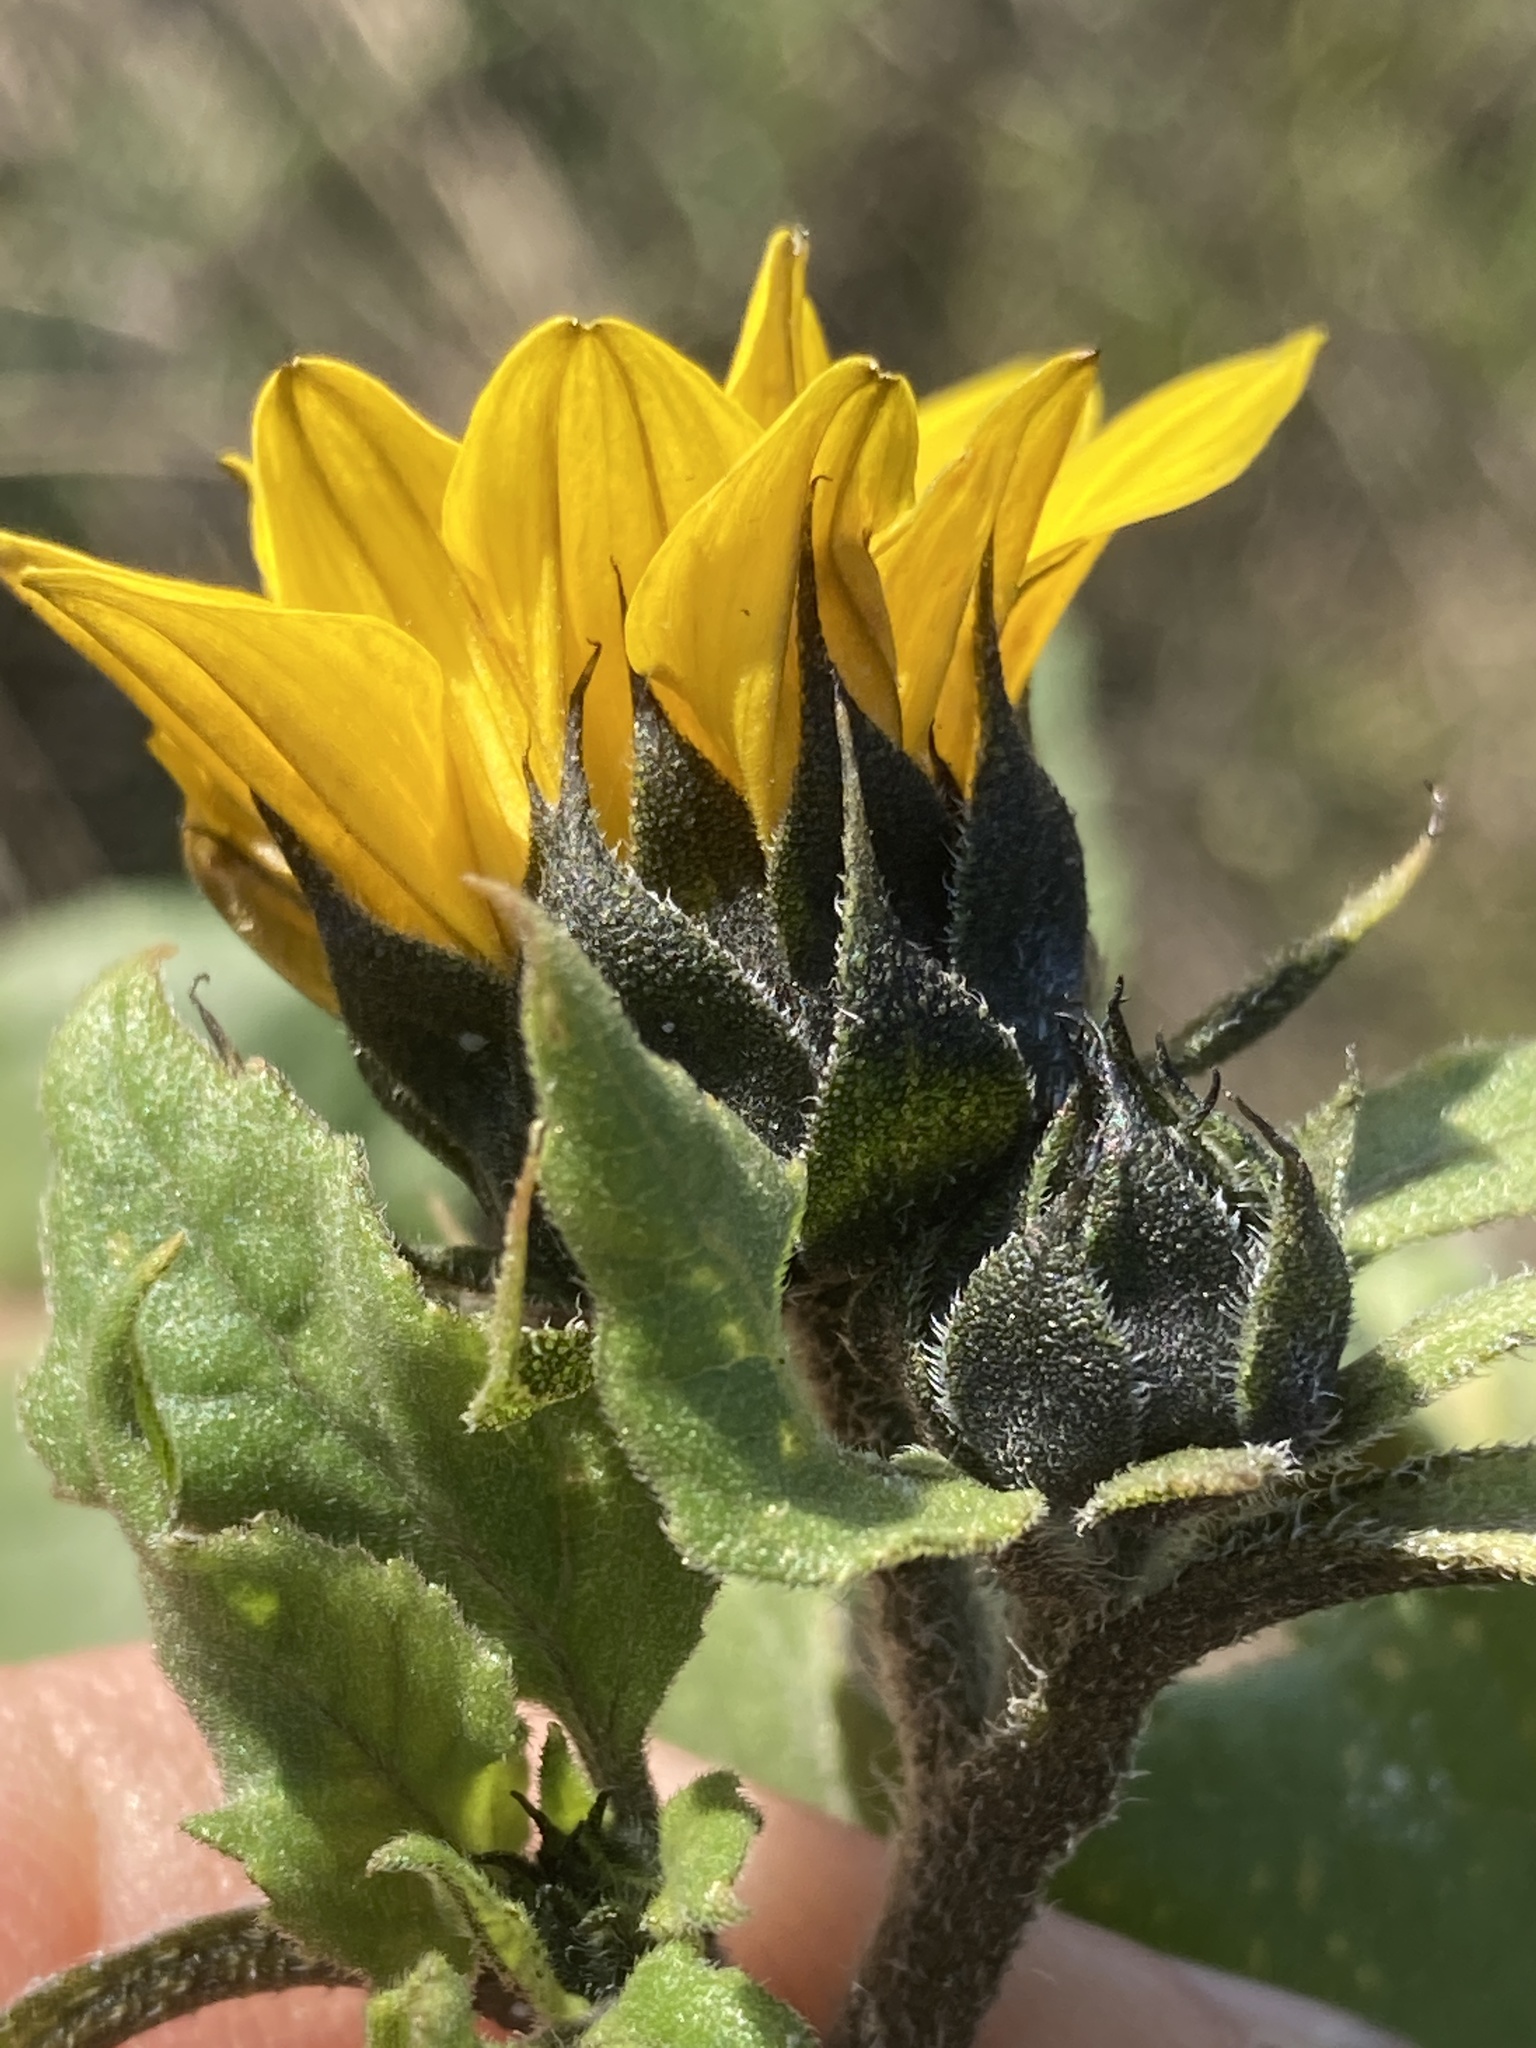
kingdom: Plantae
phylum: Tracheophyta
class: Magnoliopsida
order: Asterales
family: Asteraceae
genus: Helianthus
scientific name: Helianthus annuus
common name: Sunflower
